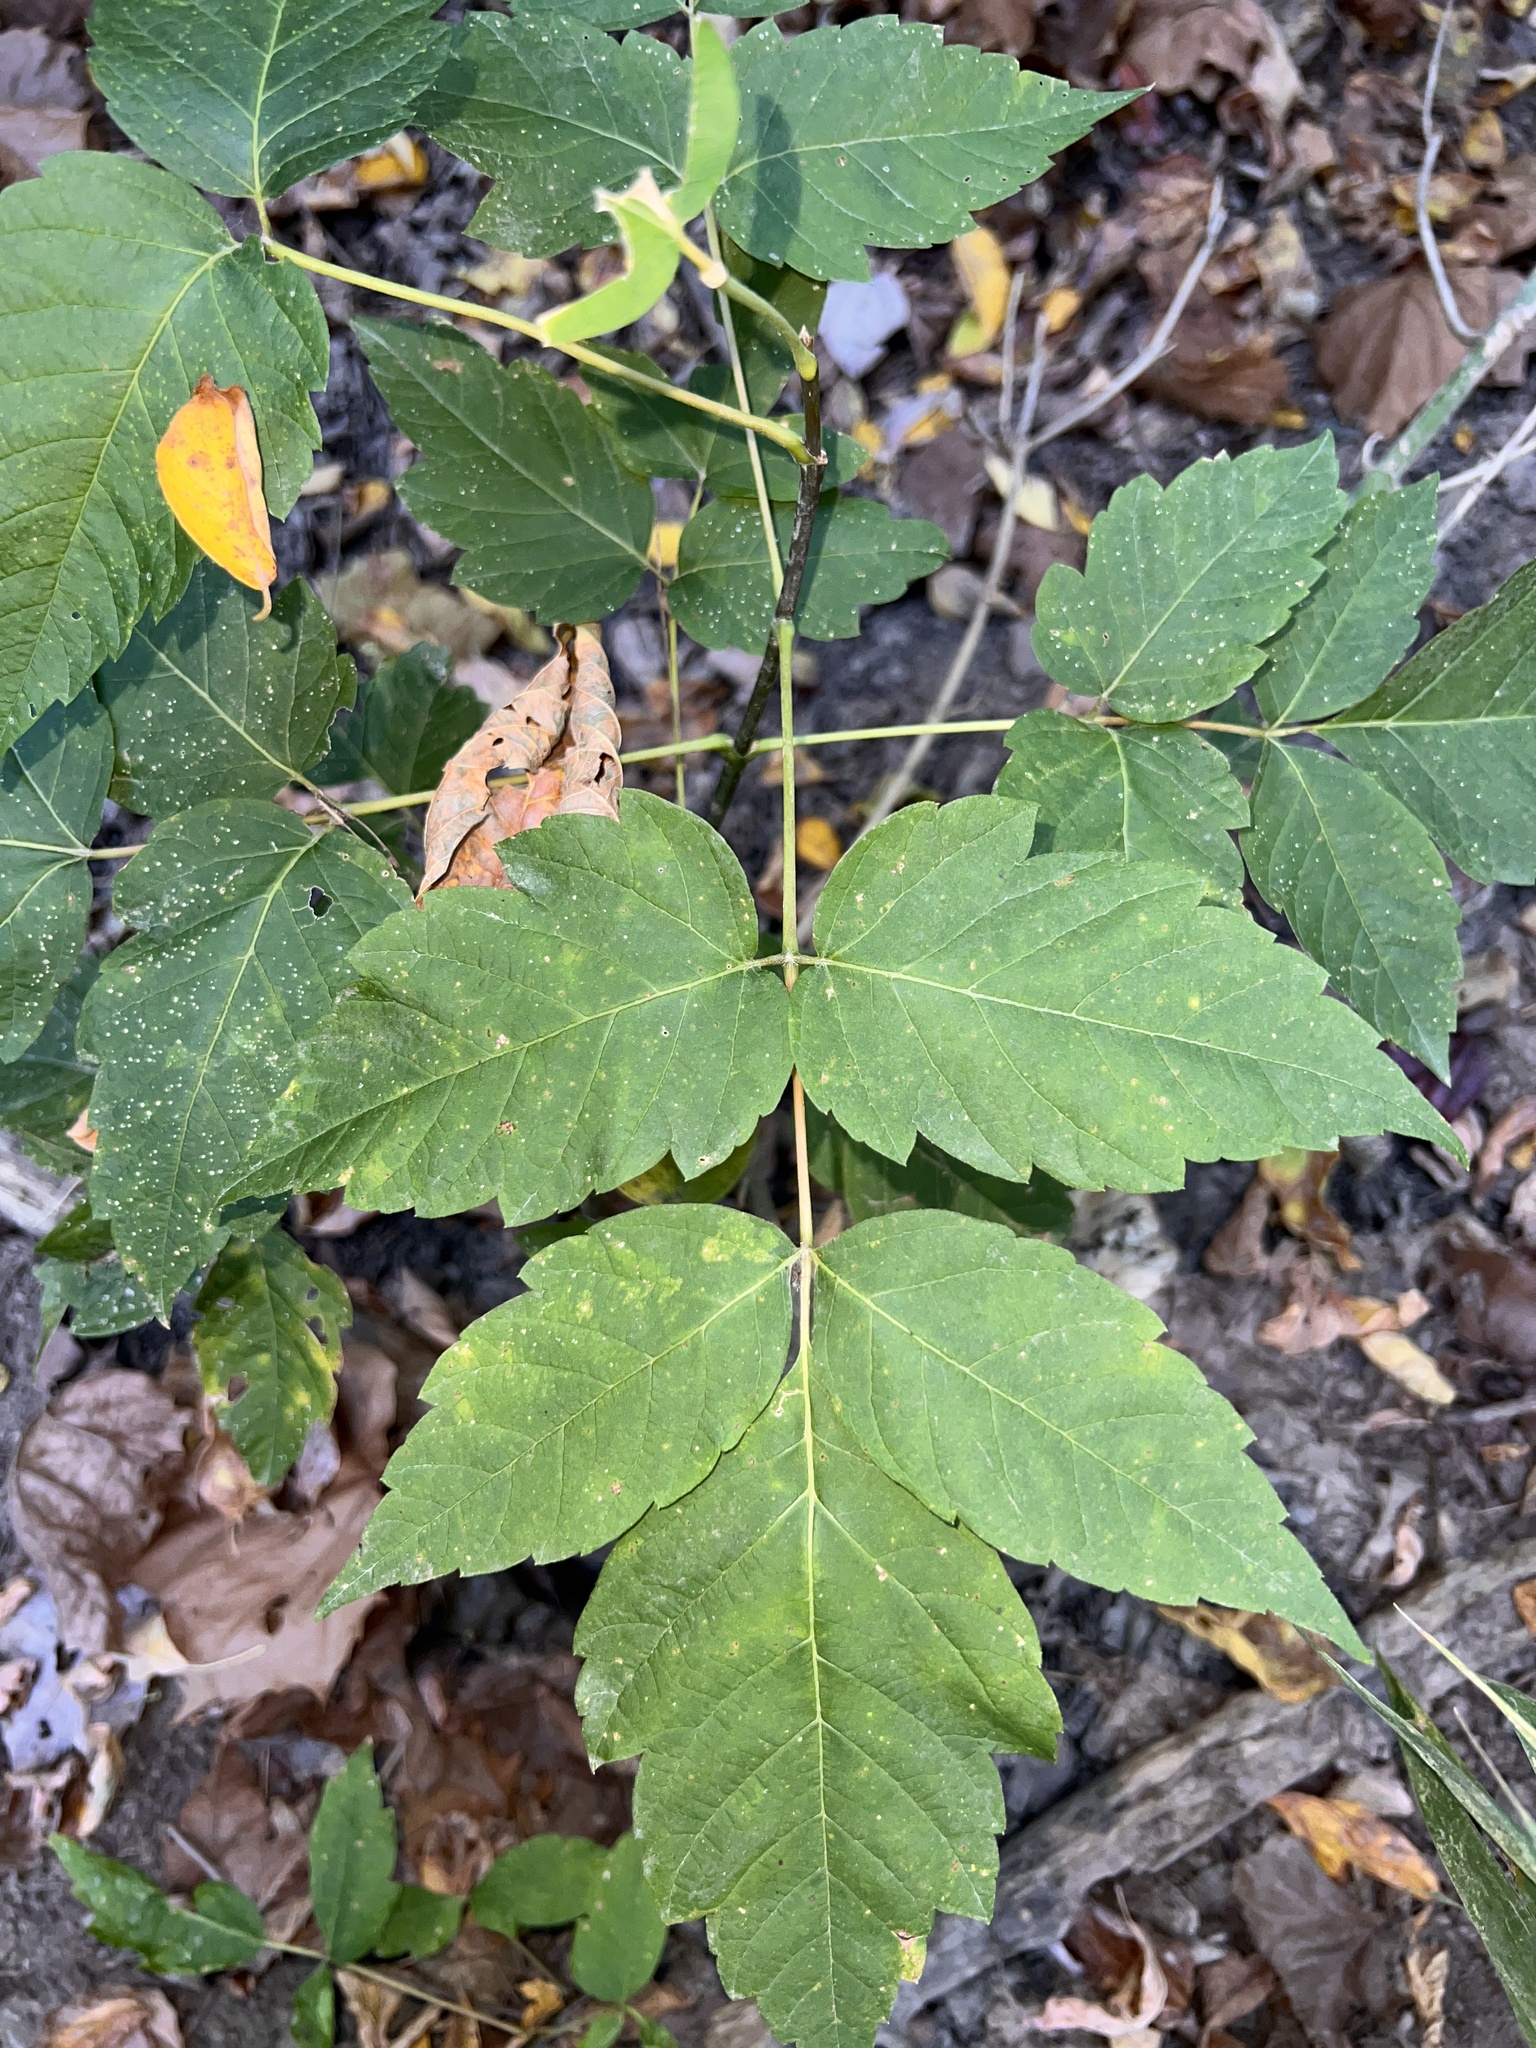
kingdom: Plantae
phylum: Tracheophyta
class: Magnoliopsida
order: Sapindales
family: Sapindaceae
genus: Acer
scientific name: Acer negundo
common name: Ashleaf maple
